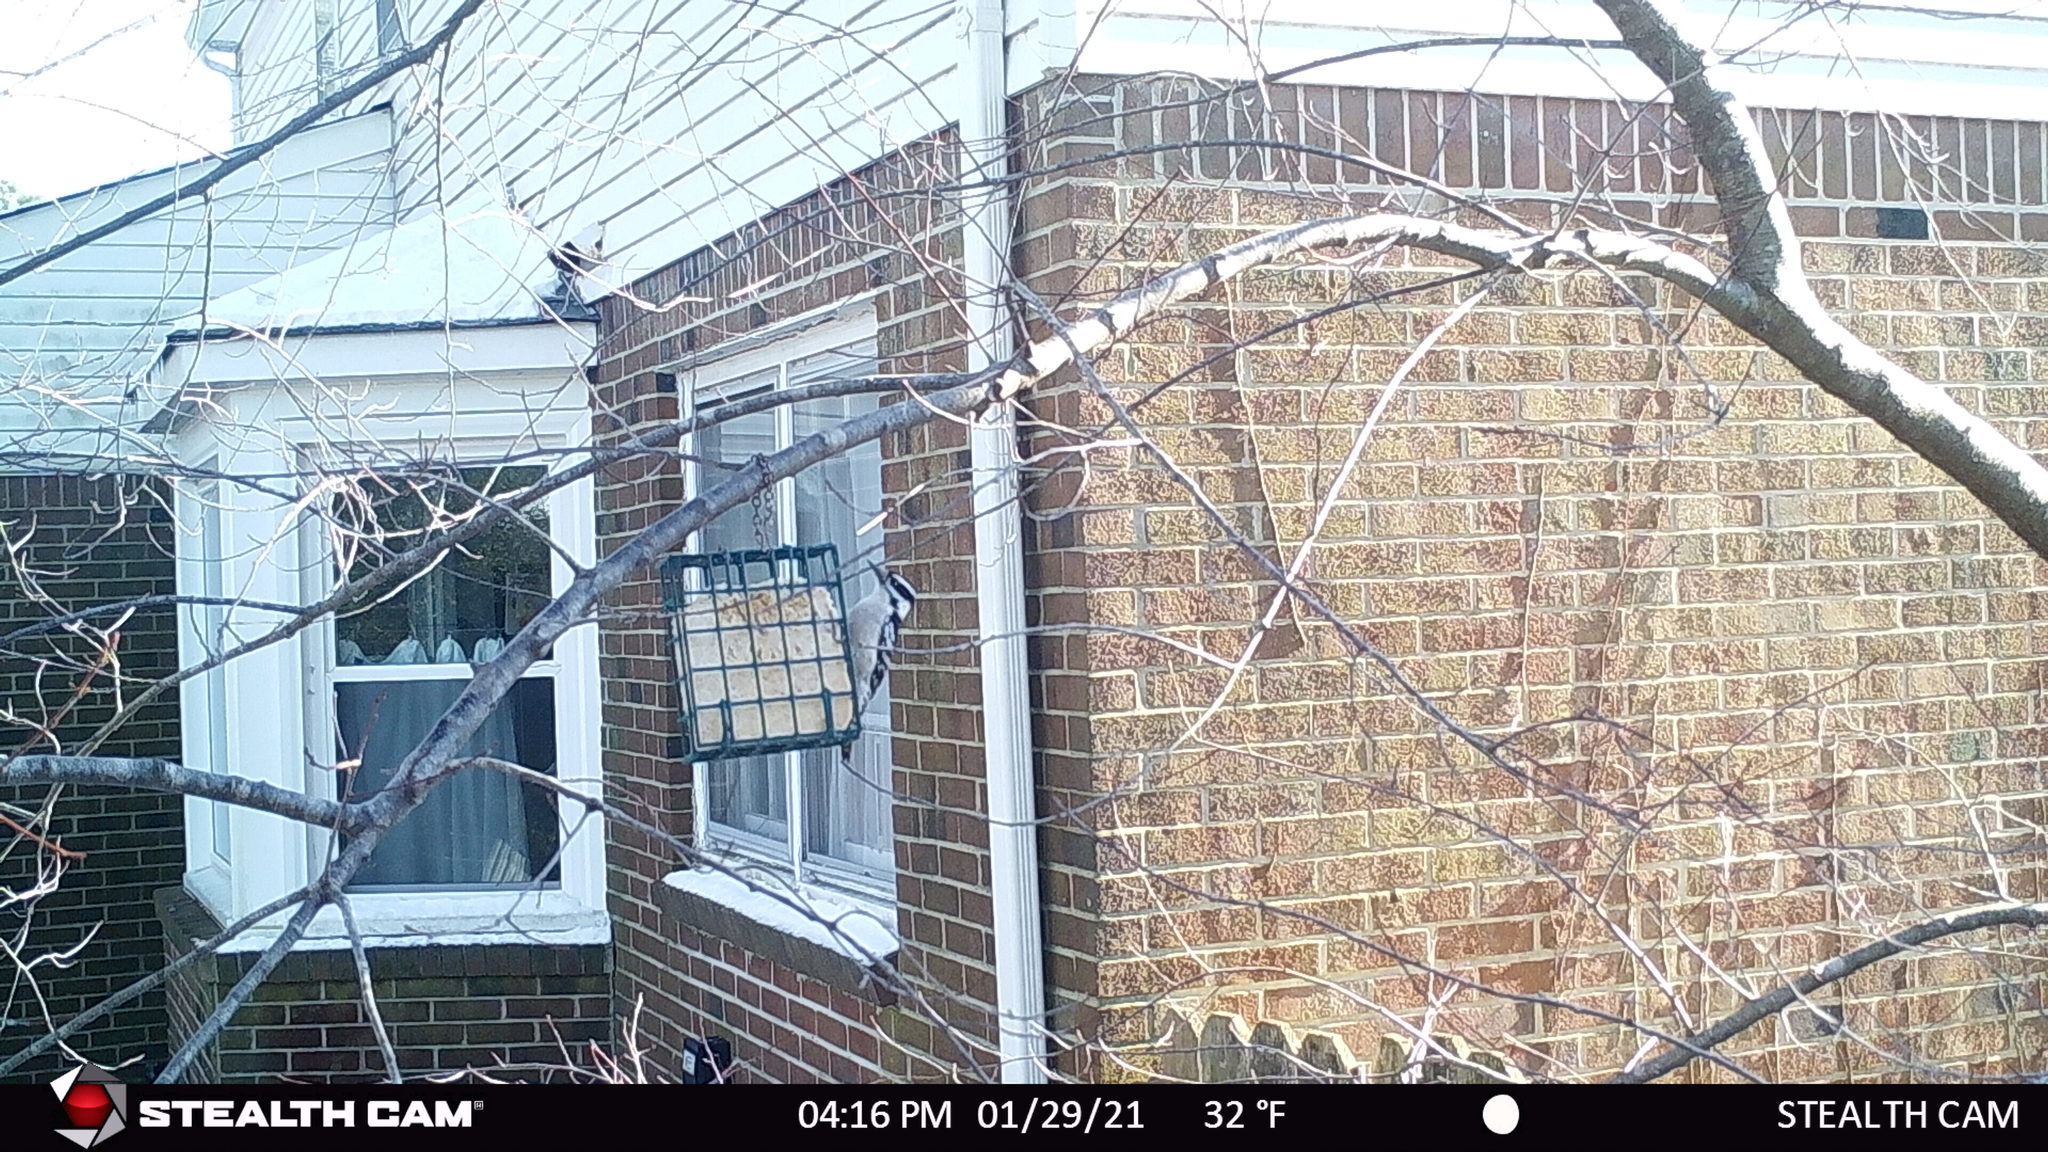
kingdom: Animalia
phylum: Chordata
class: Aves
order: Piciformes
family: Picidae
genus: Leuconotopicus
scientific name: Leuconotopicus villosus
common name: Hairy woodpecker
